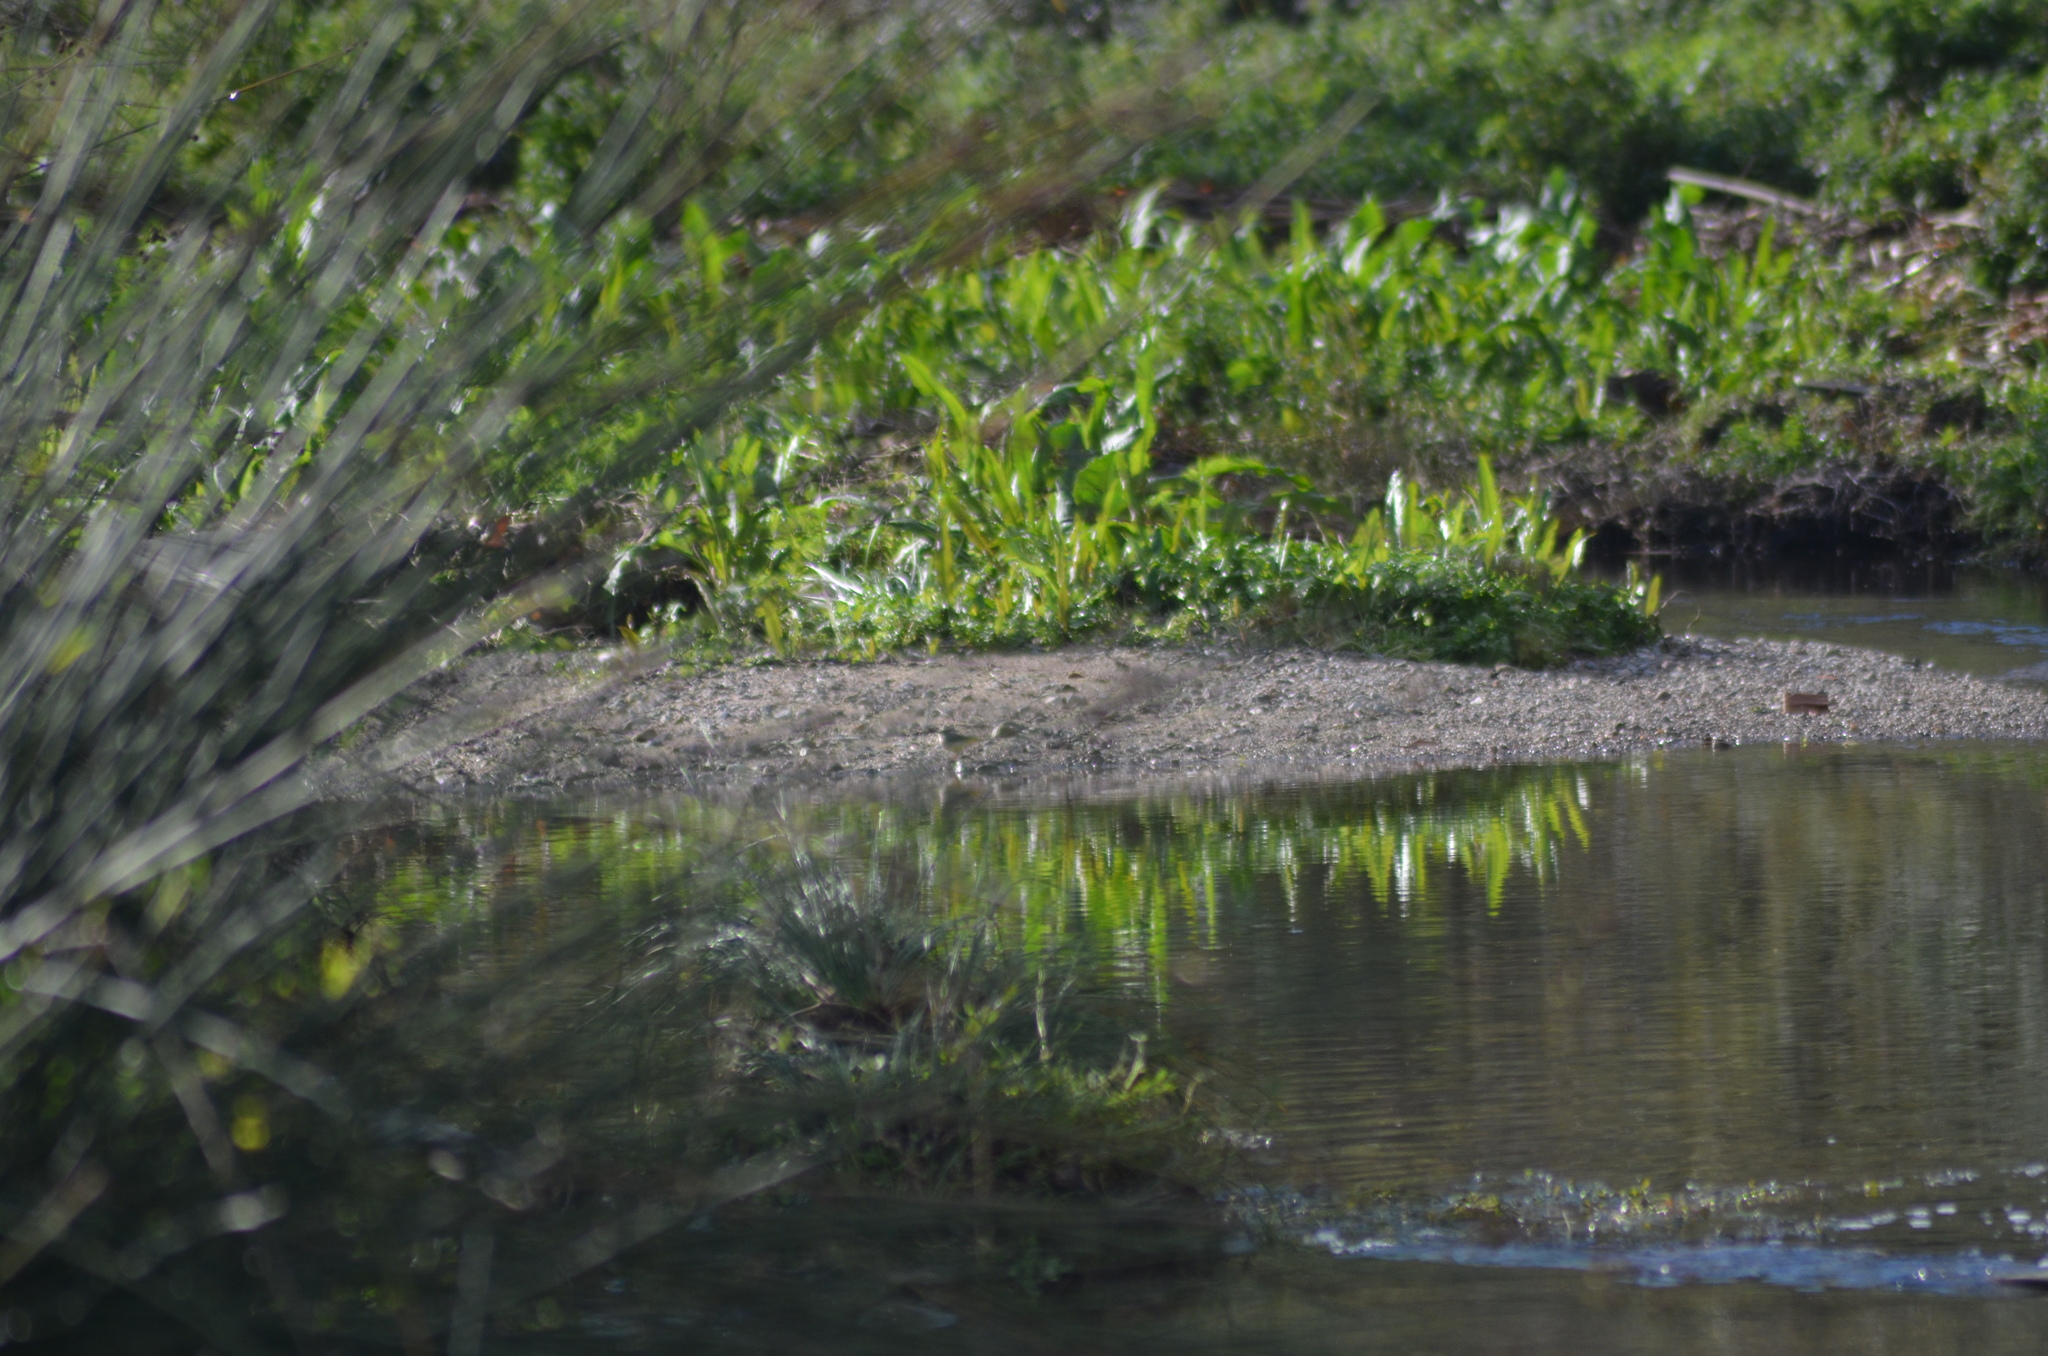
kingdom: Animalia
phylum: Chordata
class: Aves
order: Passeriformes
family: Motacillidae
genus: Motacilla
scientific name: Motacilla cinerea
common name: Grey wagtail
